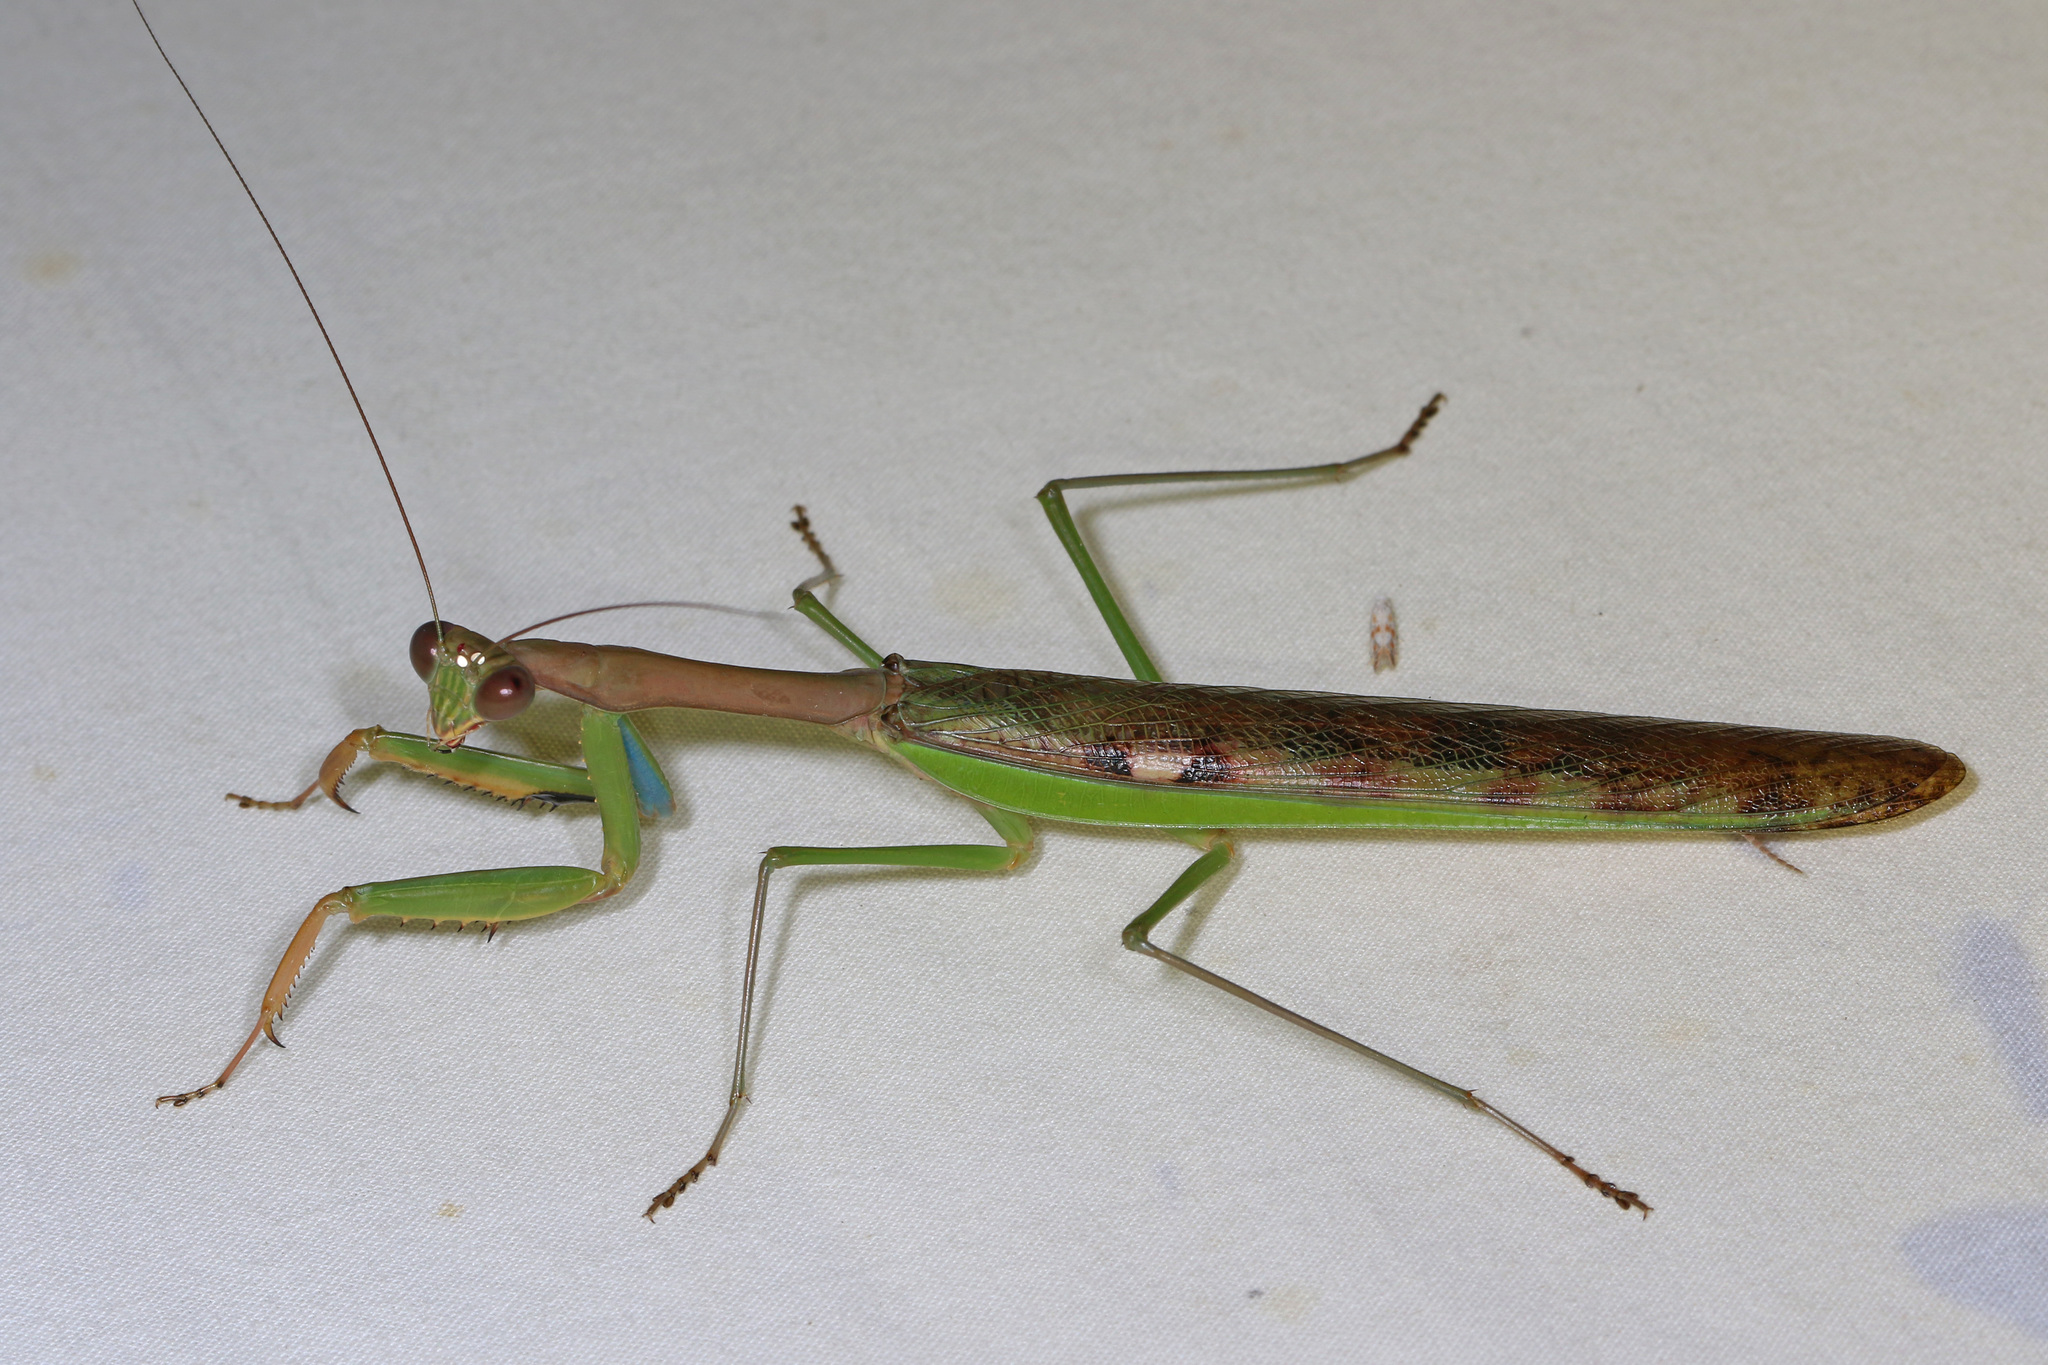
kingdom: Animalia
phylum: Arthropoda
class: Insecta
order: Mantodea
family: Mantidae
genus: Polyspilota
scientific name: Polyspilota aeruginosa
